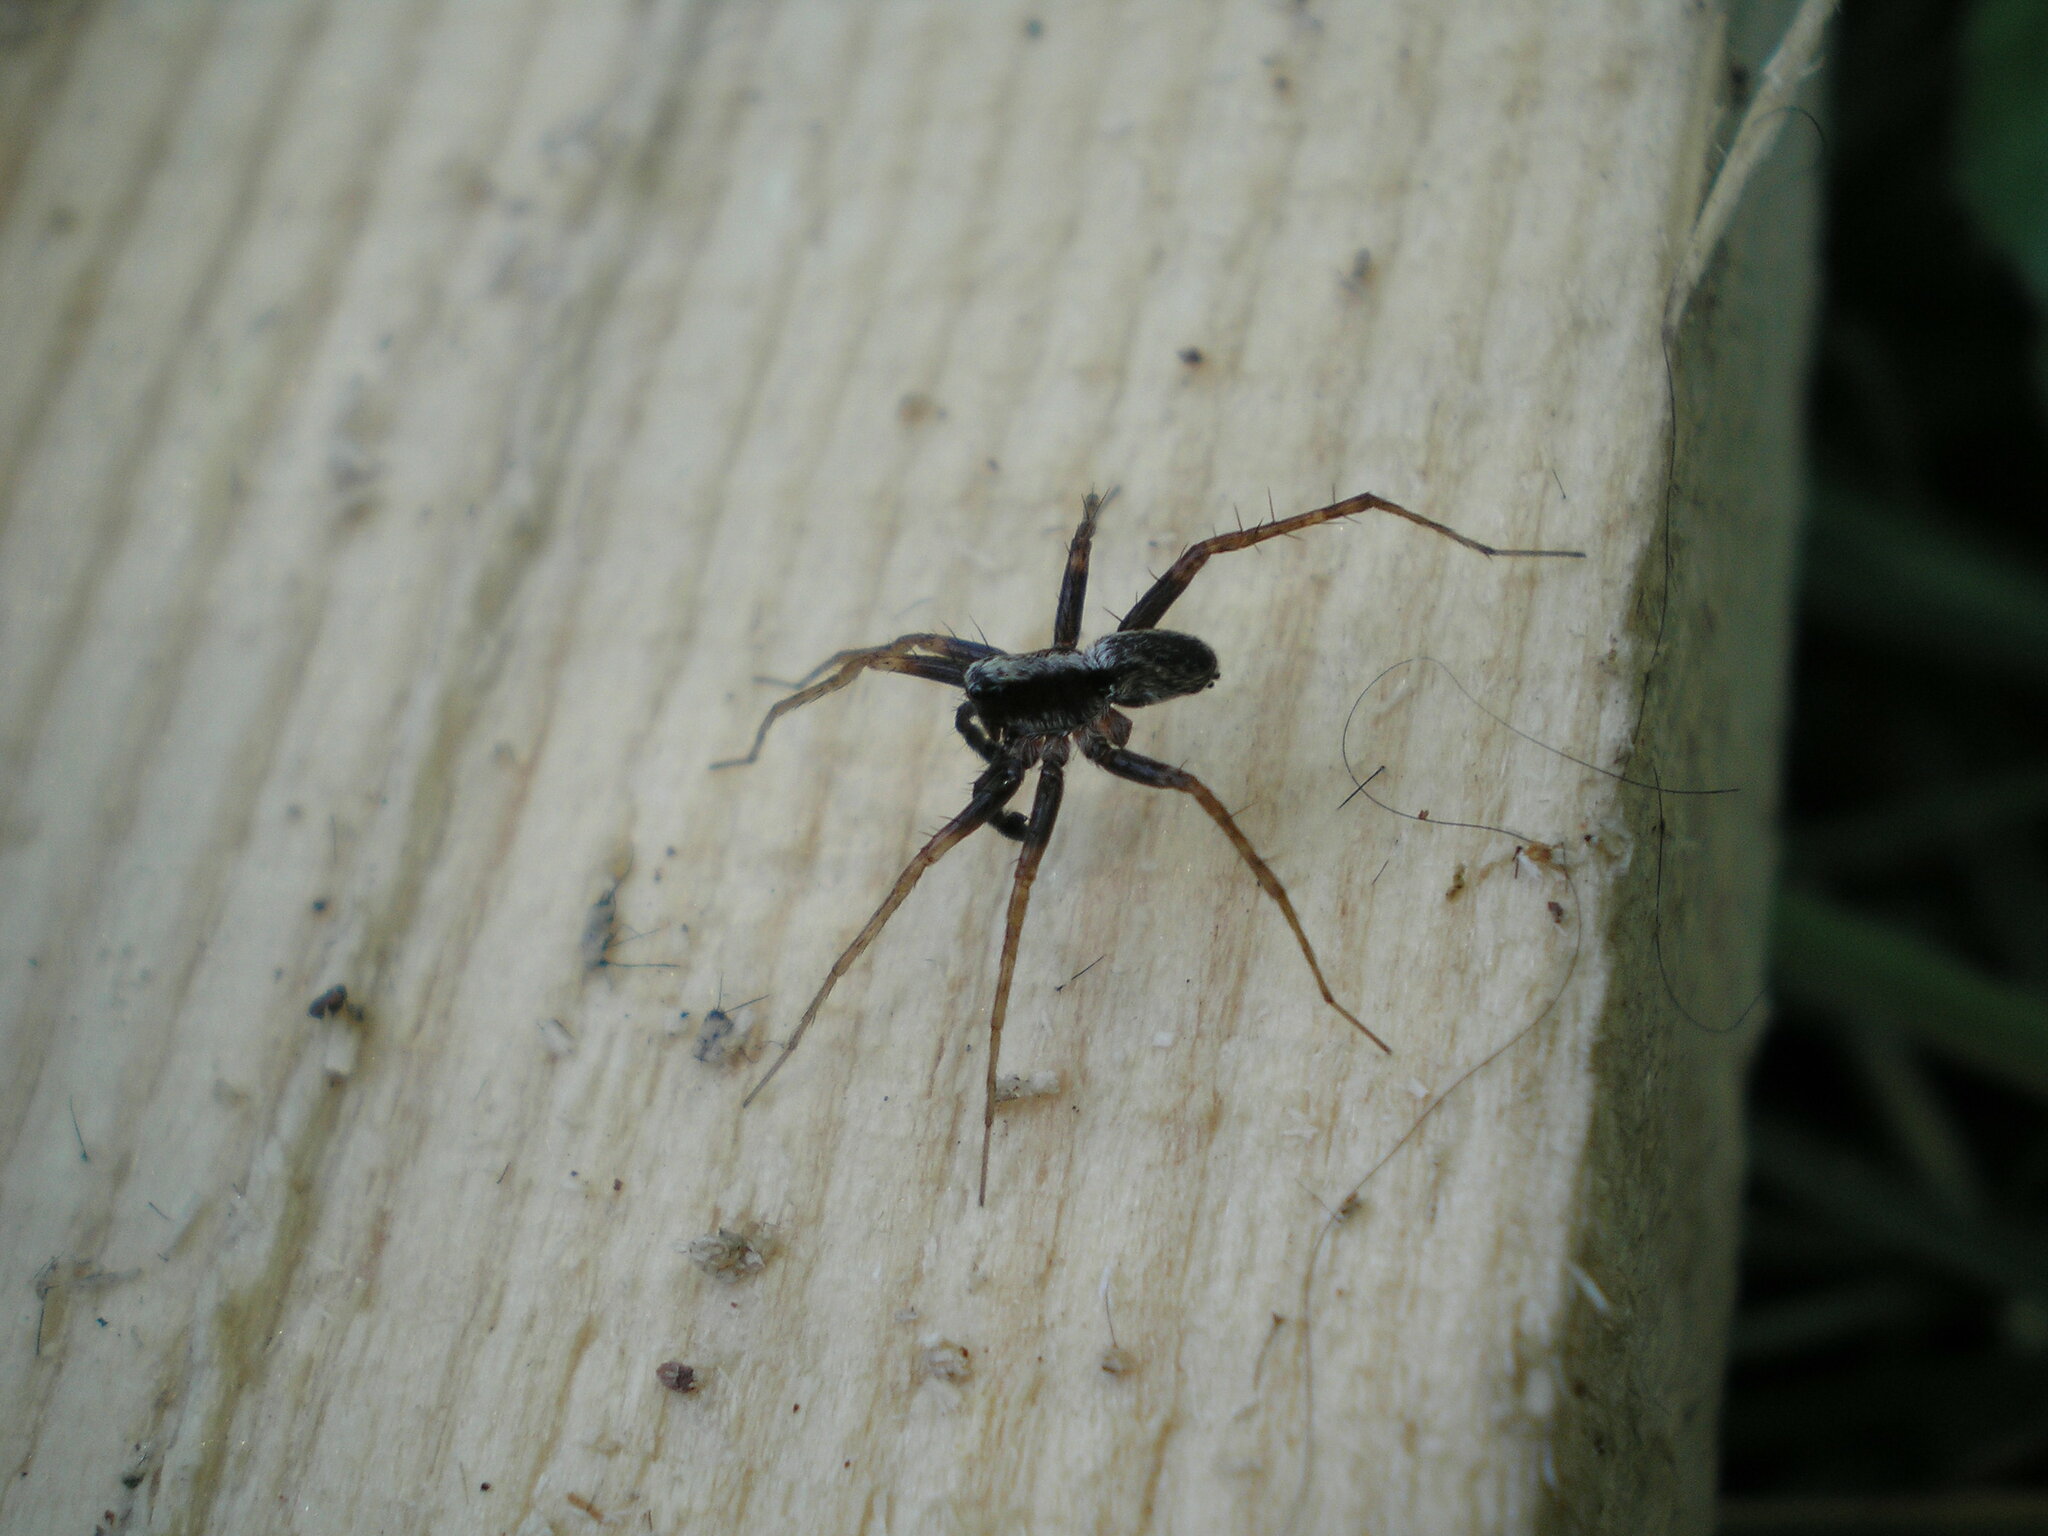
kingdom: Animalia
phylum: Arthropoda
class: Arachnida
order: Araneae
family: Lycosidae
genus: Pardosa
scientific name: Pardosa
